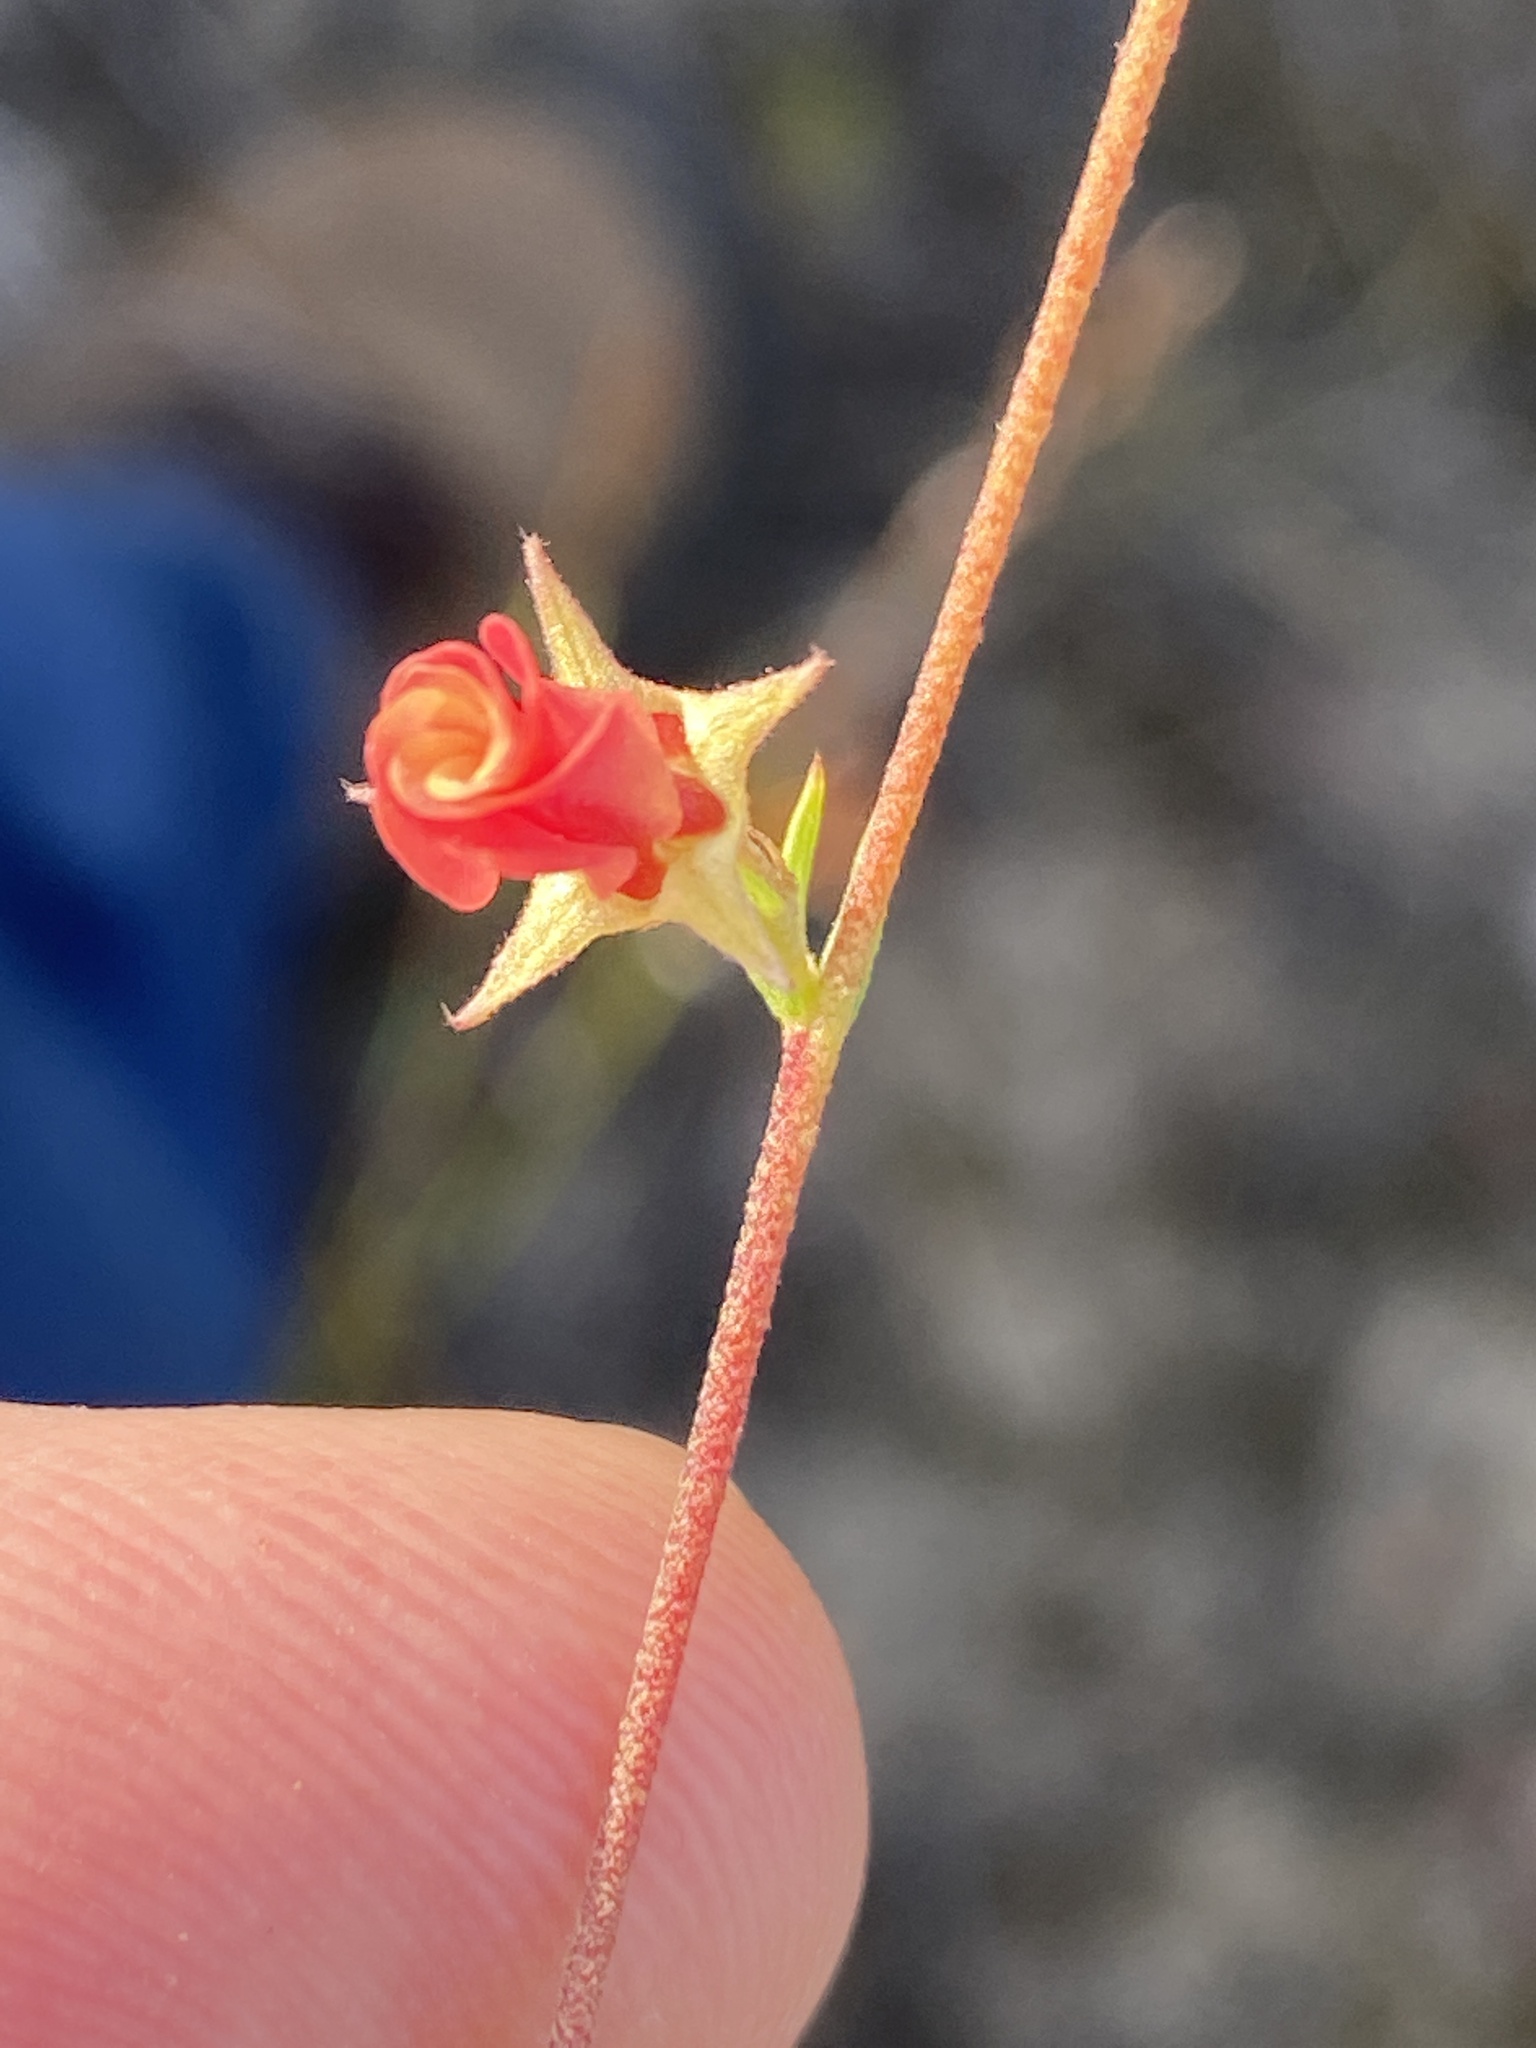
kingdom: Plantae
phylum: Tracheophyta
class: Magnoliopsida
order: Malvales
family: Malvaceae
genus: Hermannia
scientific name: Hermannia filifolia
